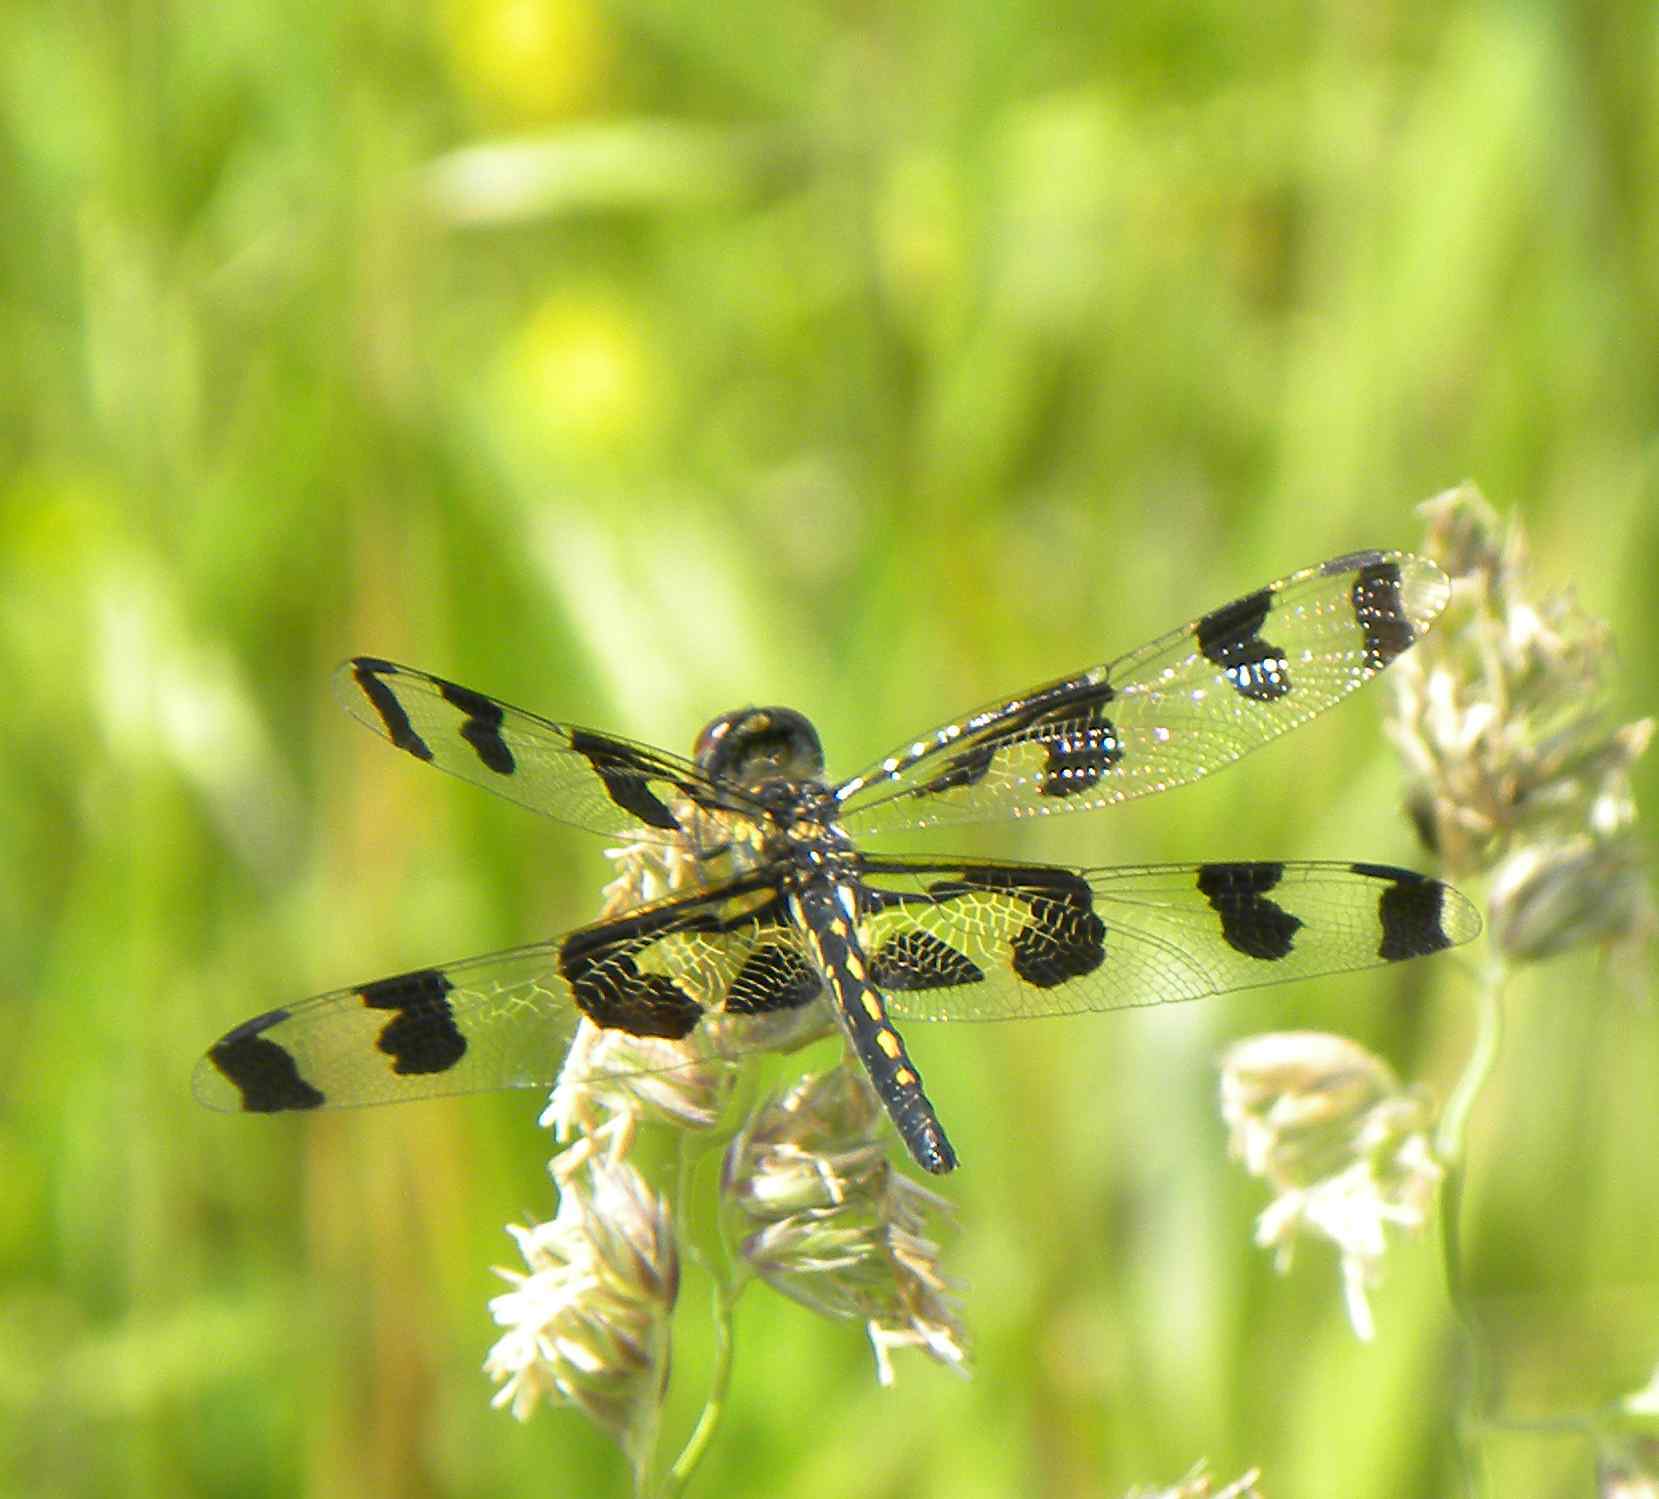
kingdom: Animalia
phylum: Arthropoda
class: Insecta
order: Odonata
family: Libellulidae
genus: Celithemis
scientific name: Celithemis fasciata
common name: Banded pennant
